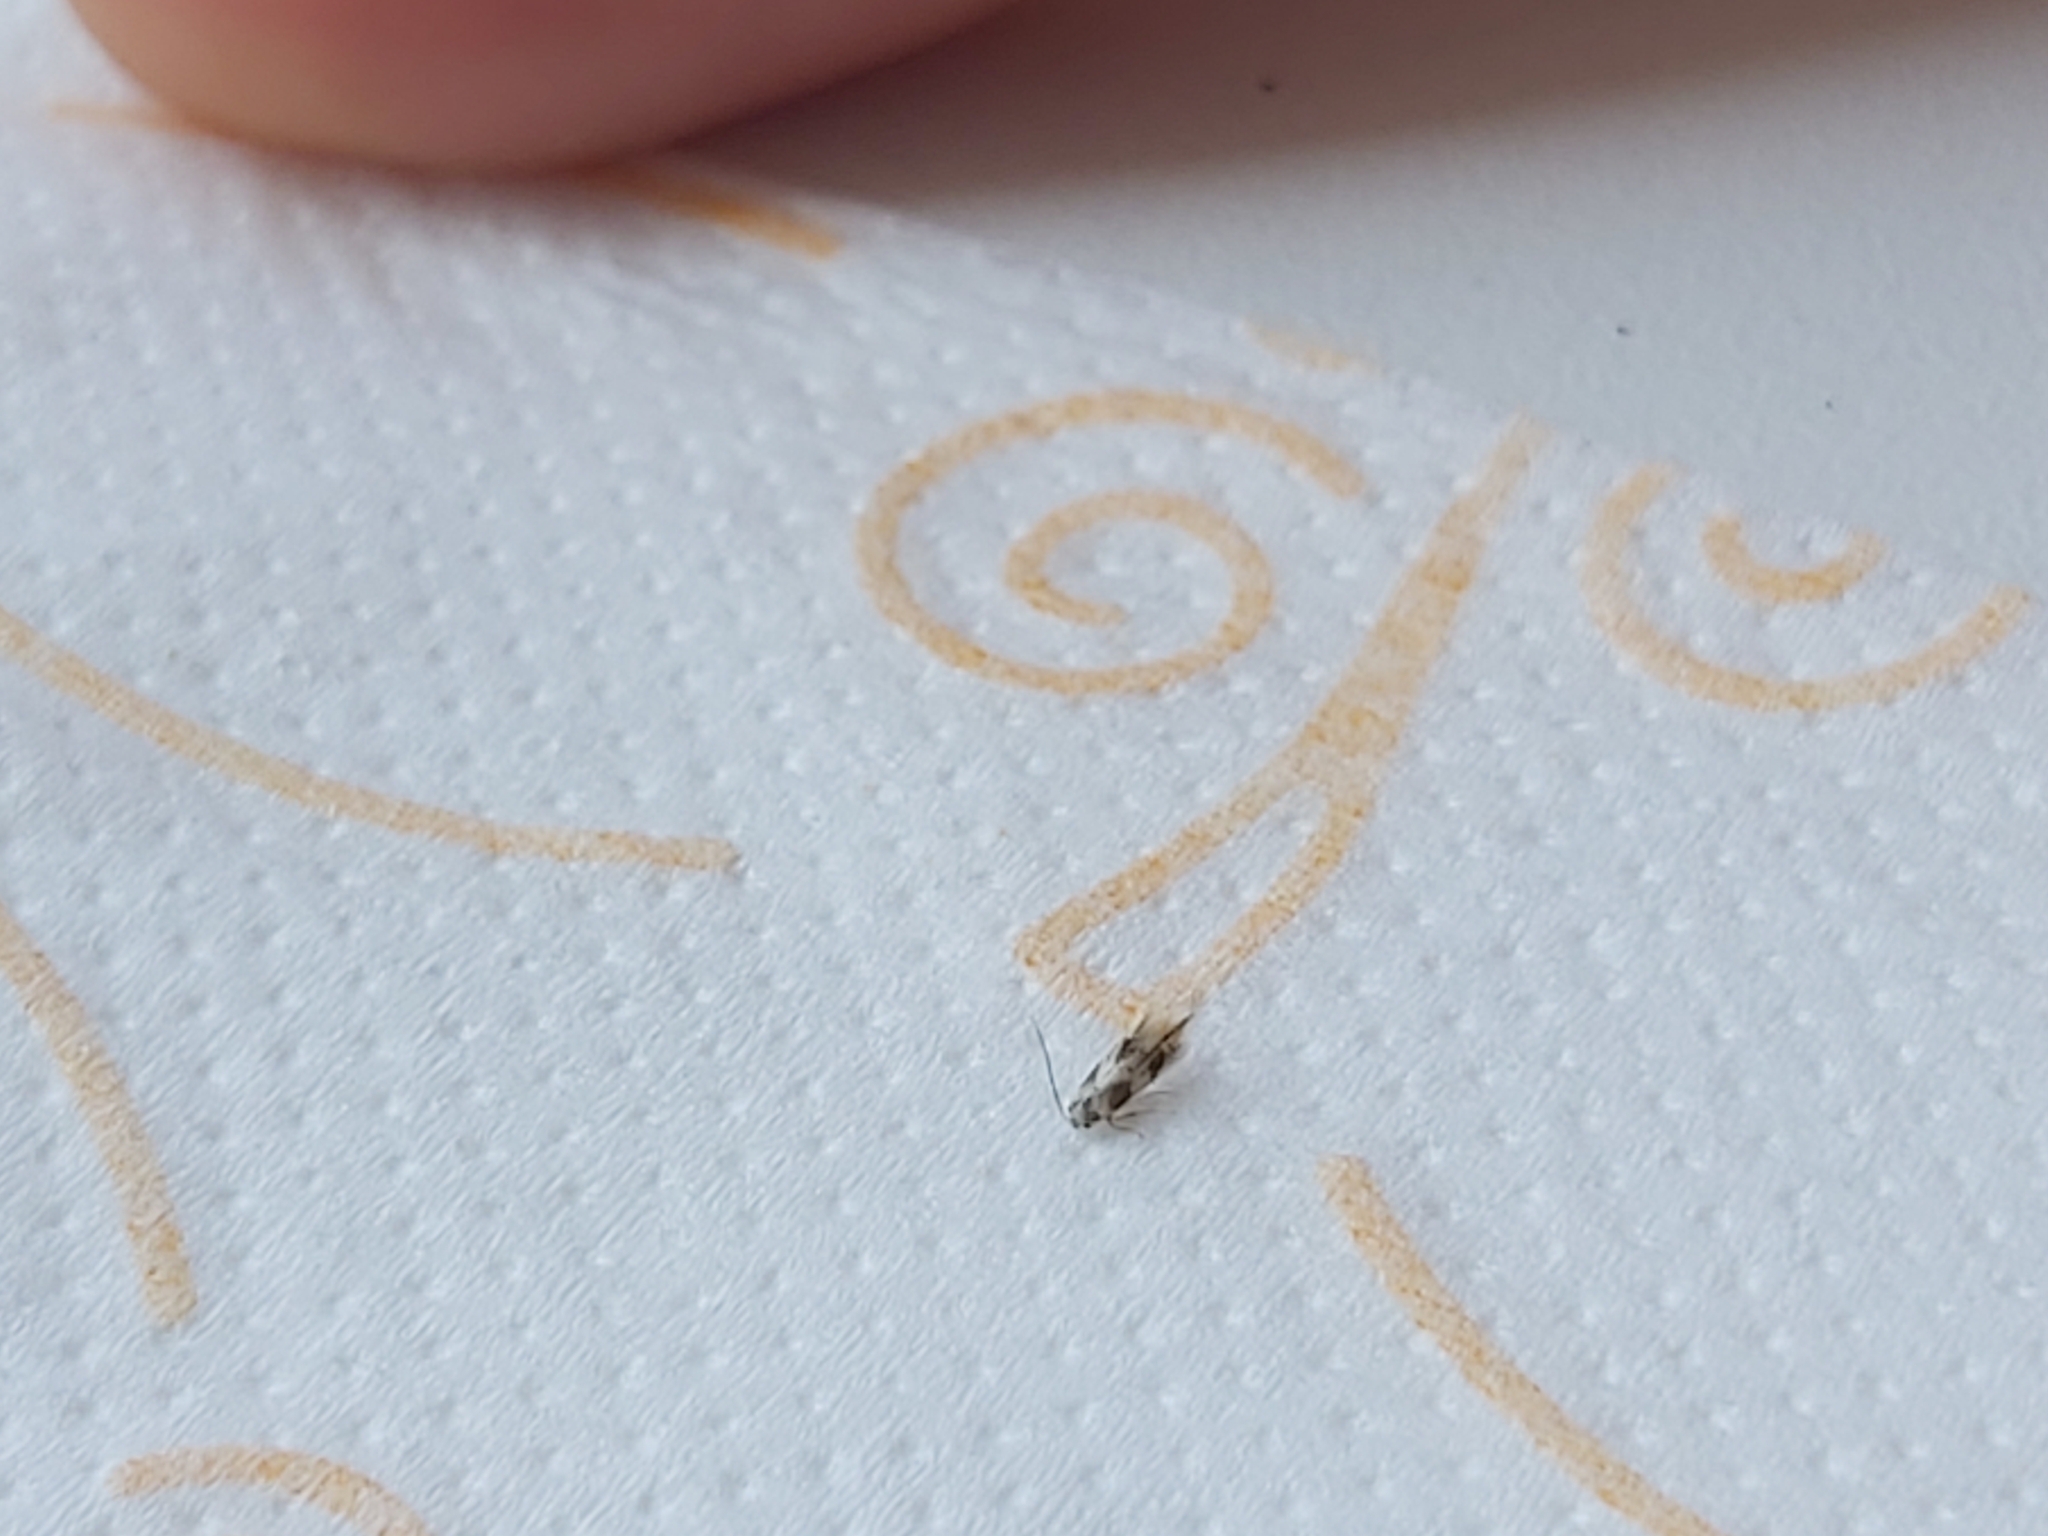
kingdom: Animalia
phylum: Arthropoda
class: Insecta
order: Lepidoptera
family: Bucculatricidae
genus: Bucculatrix
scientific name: Bucculatrix thoracella
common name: Lime bent-wing
